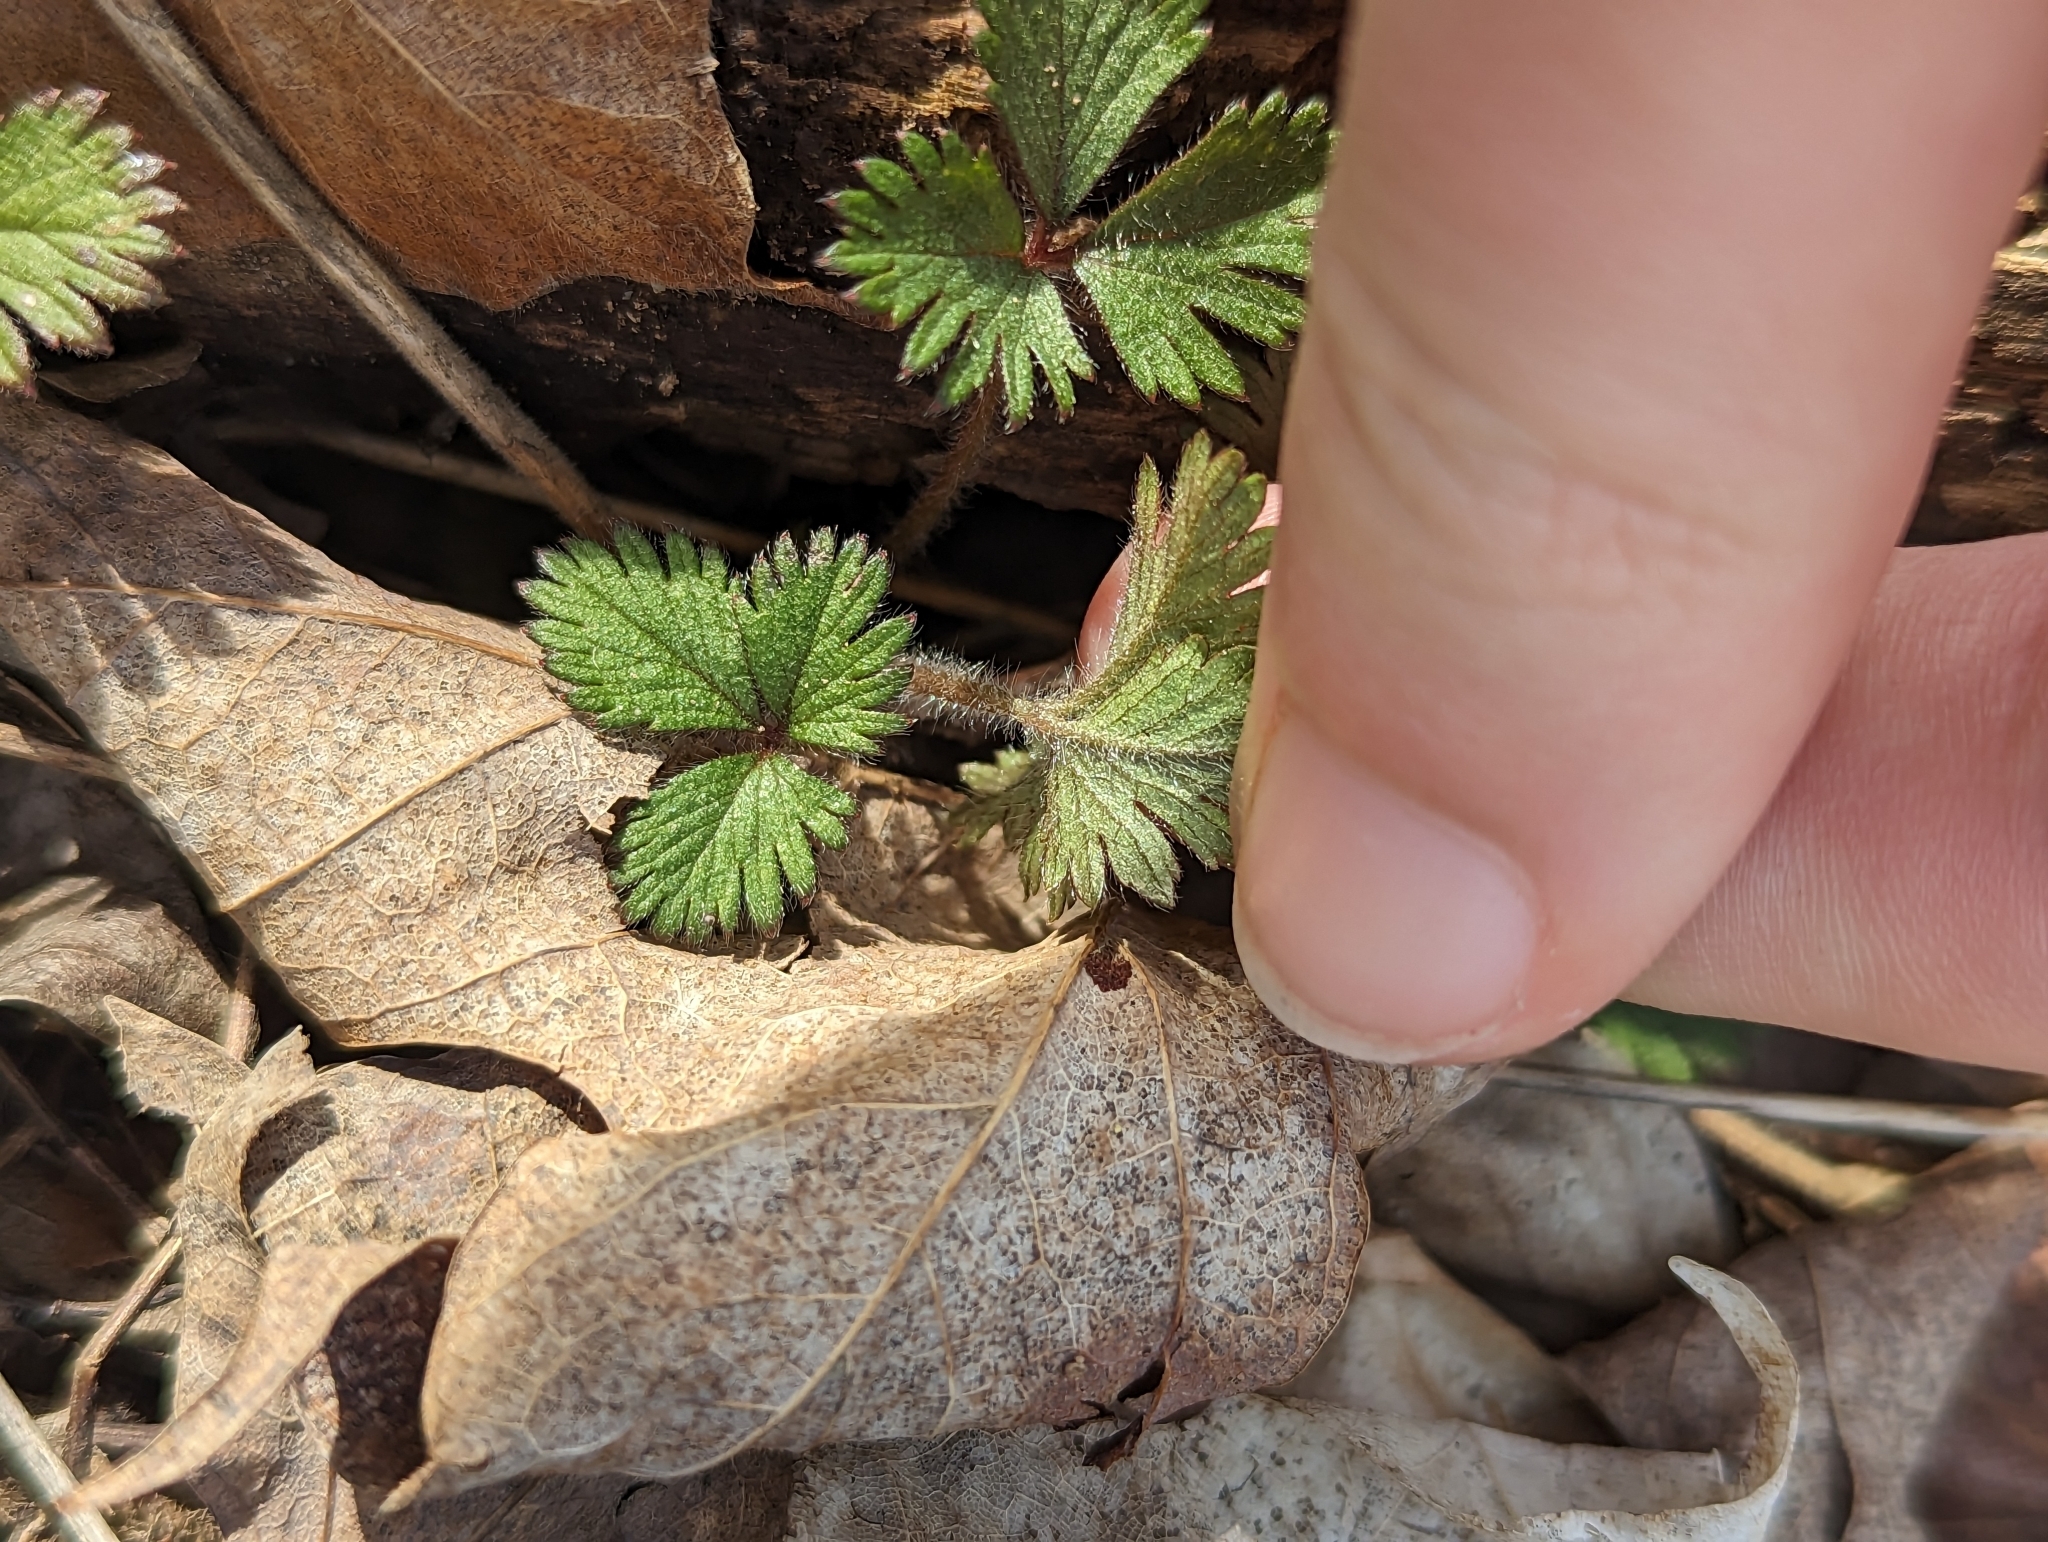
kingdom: Plantae
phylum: Tracheophyta
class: Magnoliopsida
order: Rosales
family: Rosaceae
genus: Potentilla
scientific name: Potentilla indica
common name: Yellow-flowered strawberry
